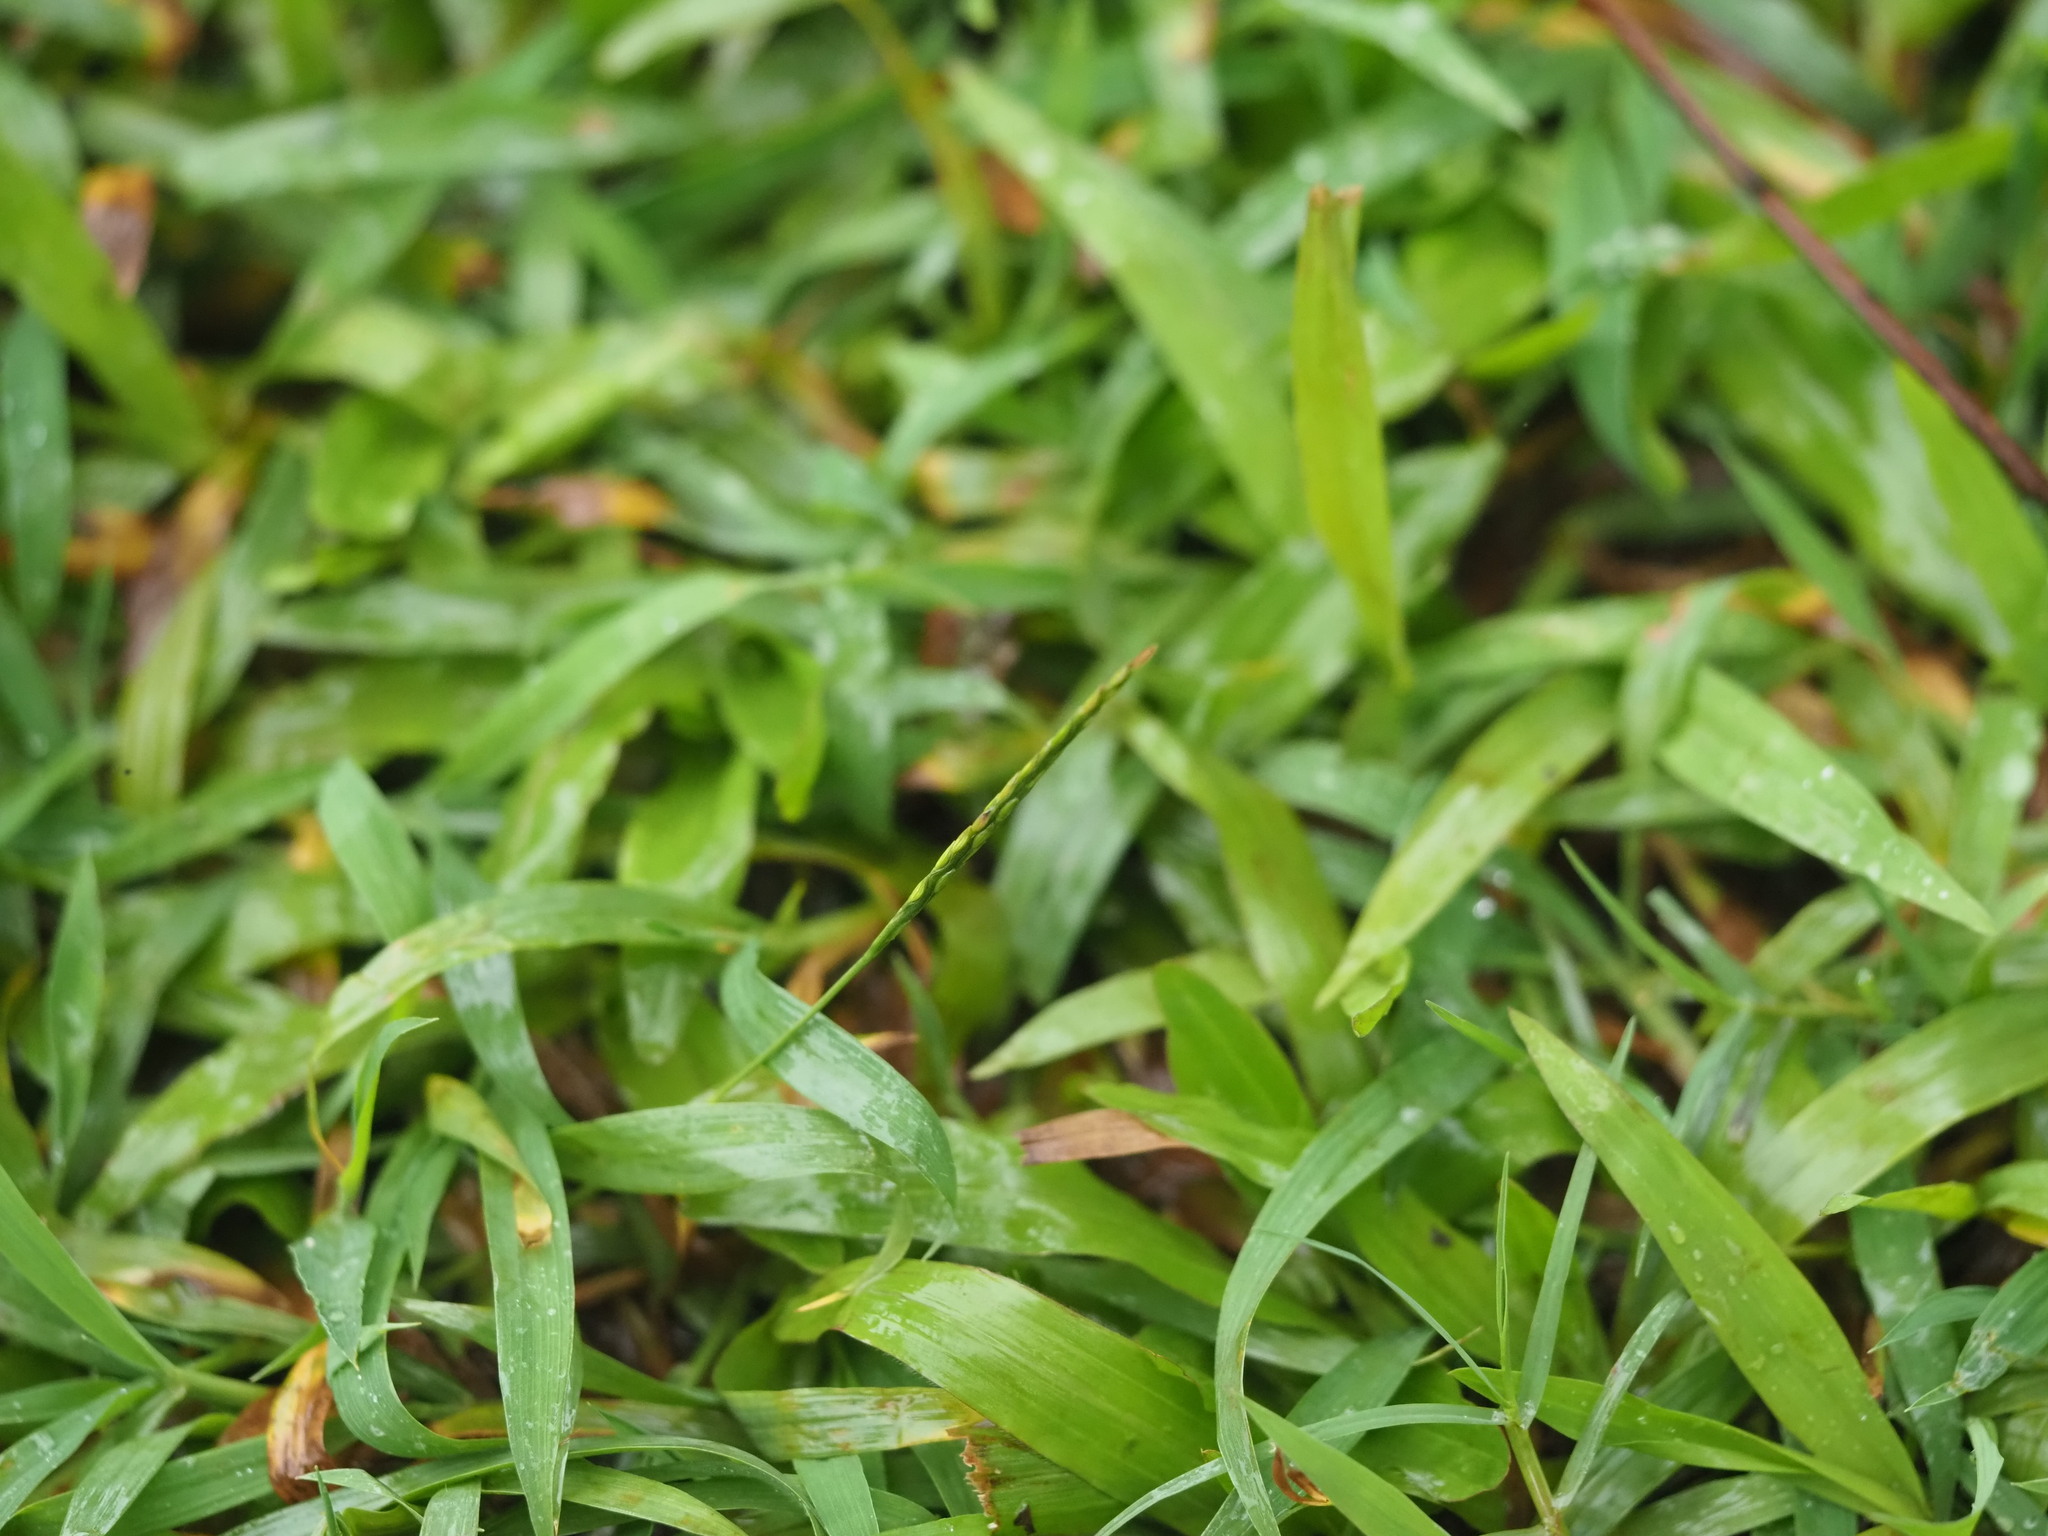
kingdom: Plantae
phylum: Tracheophyta
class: Liliopsida
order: Poales
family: Poaceae
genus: Digitaria
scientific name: Digitaria ciliaris
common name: Tropical finger-grass
